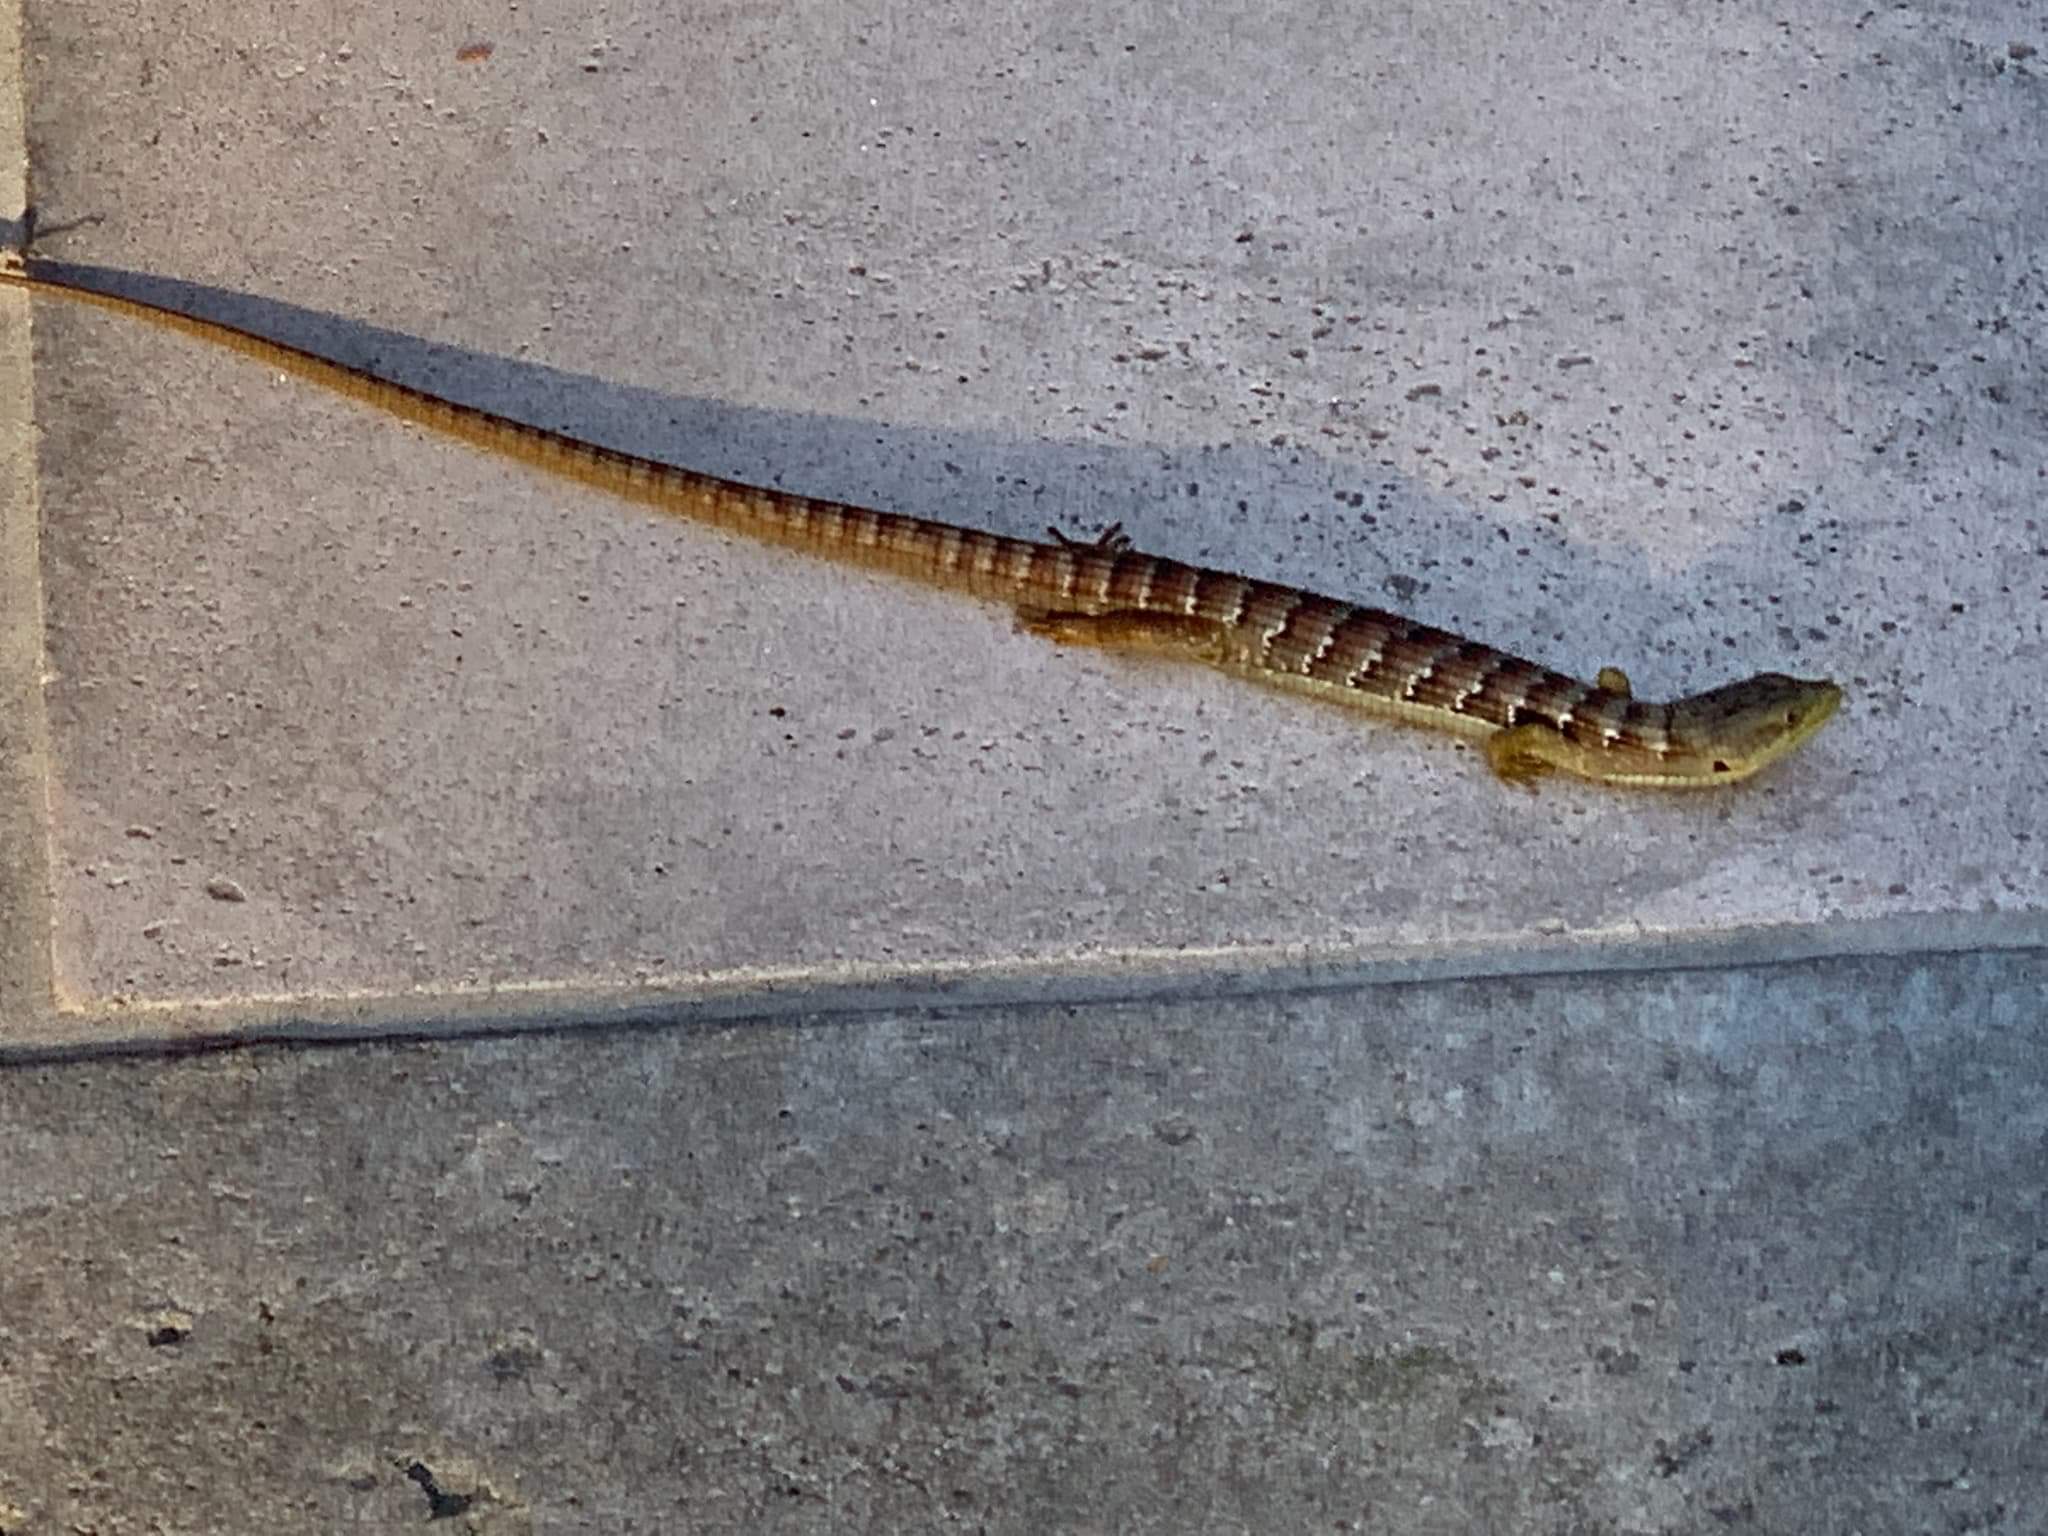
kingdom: Animalia
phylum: Chordata
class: Squamata
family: Anguidae
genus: Elgaria
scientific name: Elgaria multicarinata
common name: Southern alligator lizard
